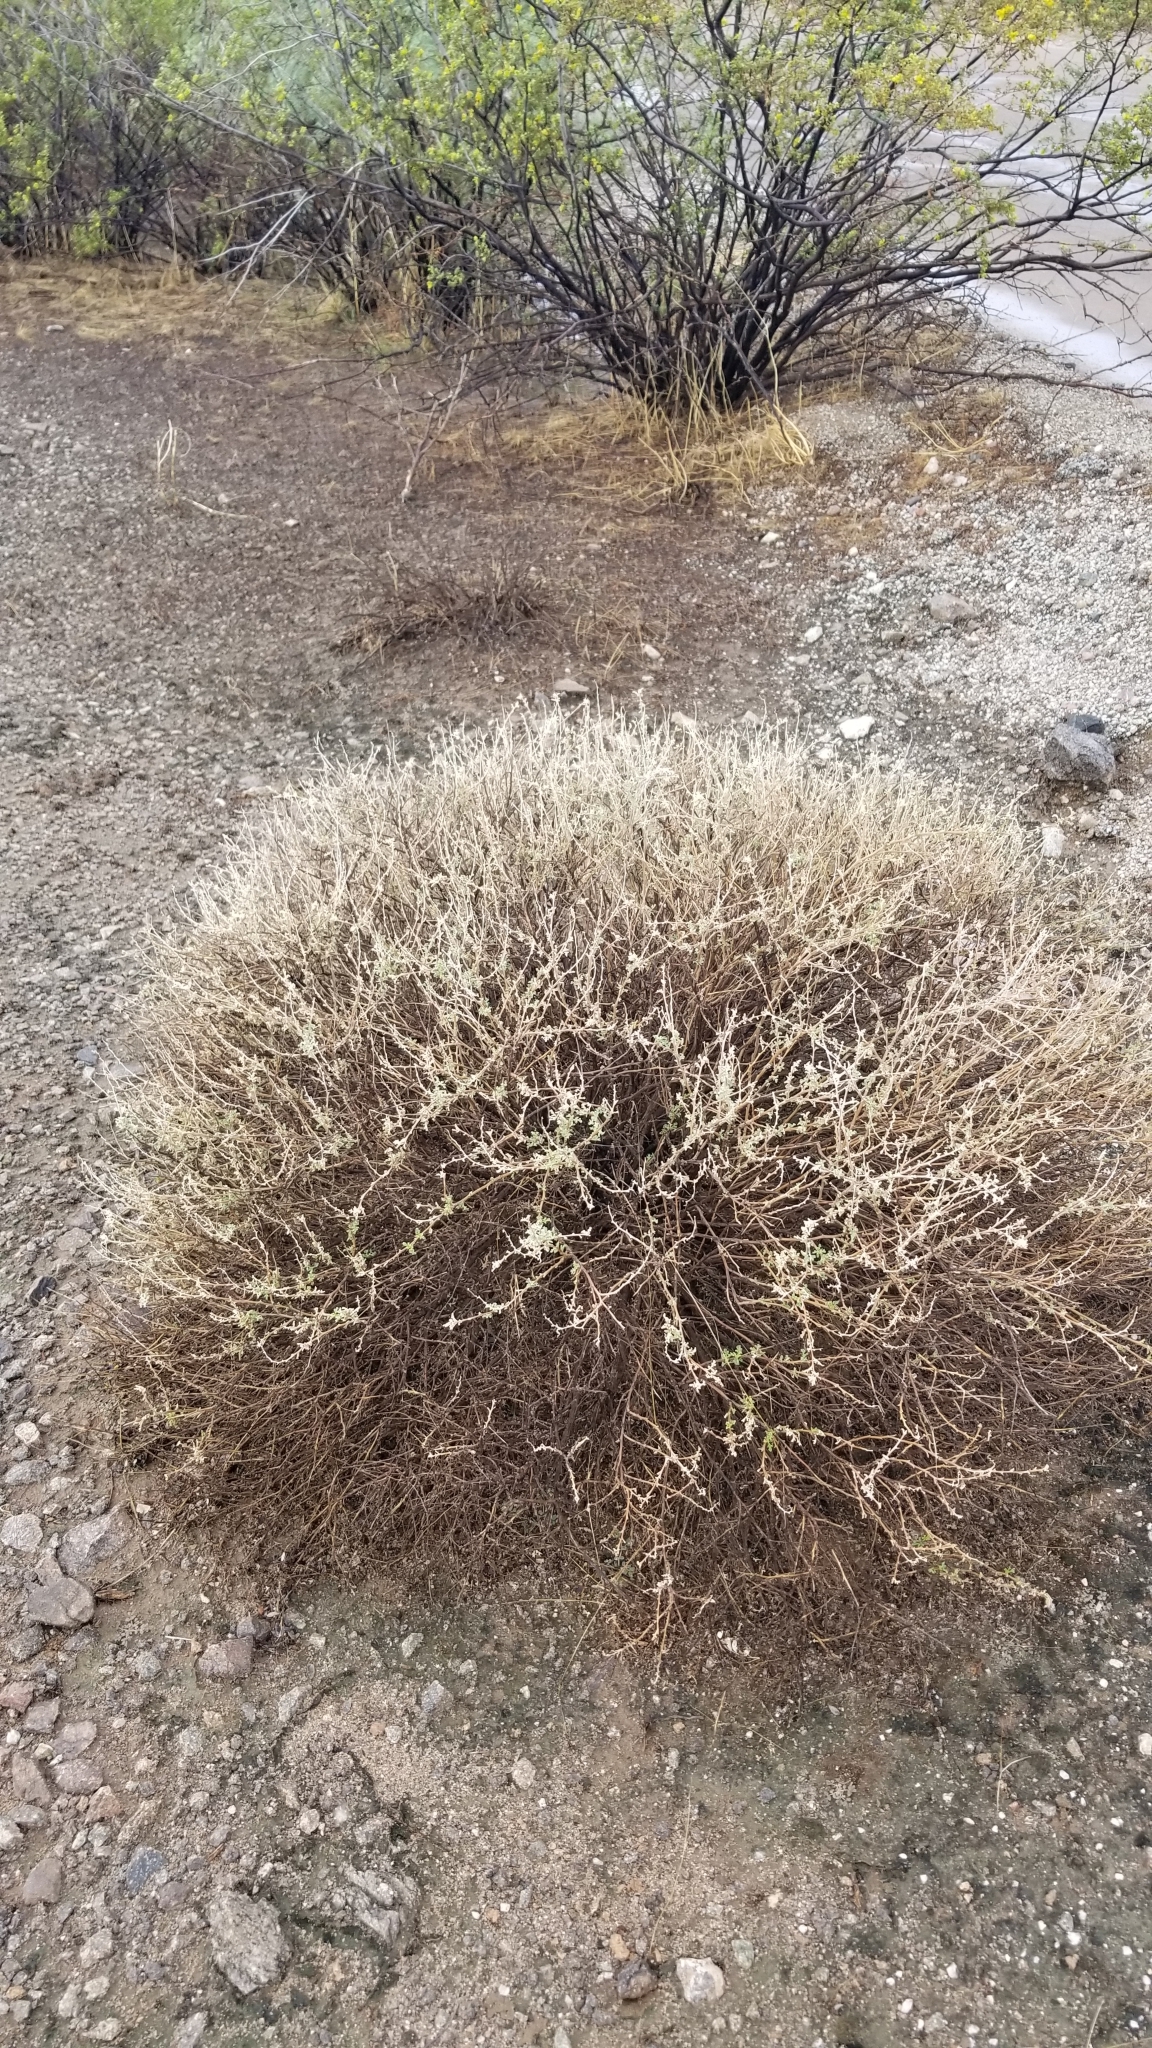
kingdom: Plantae
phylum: Tracheophyta
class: Magnoliopsida
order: Caryophyllales
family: Amaranthaceae
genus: Atriplex
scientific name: Atriplex polycarpa
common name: Desert saltbush
